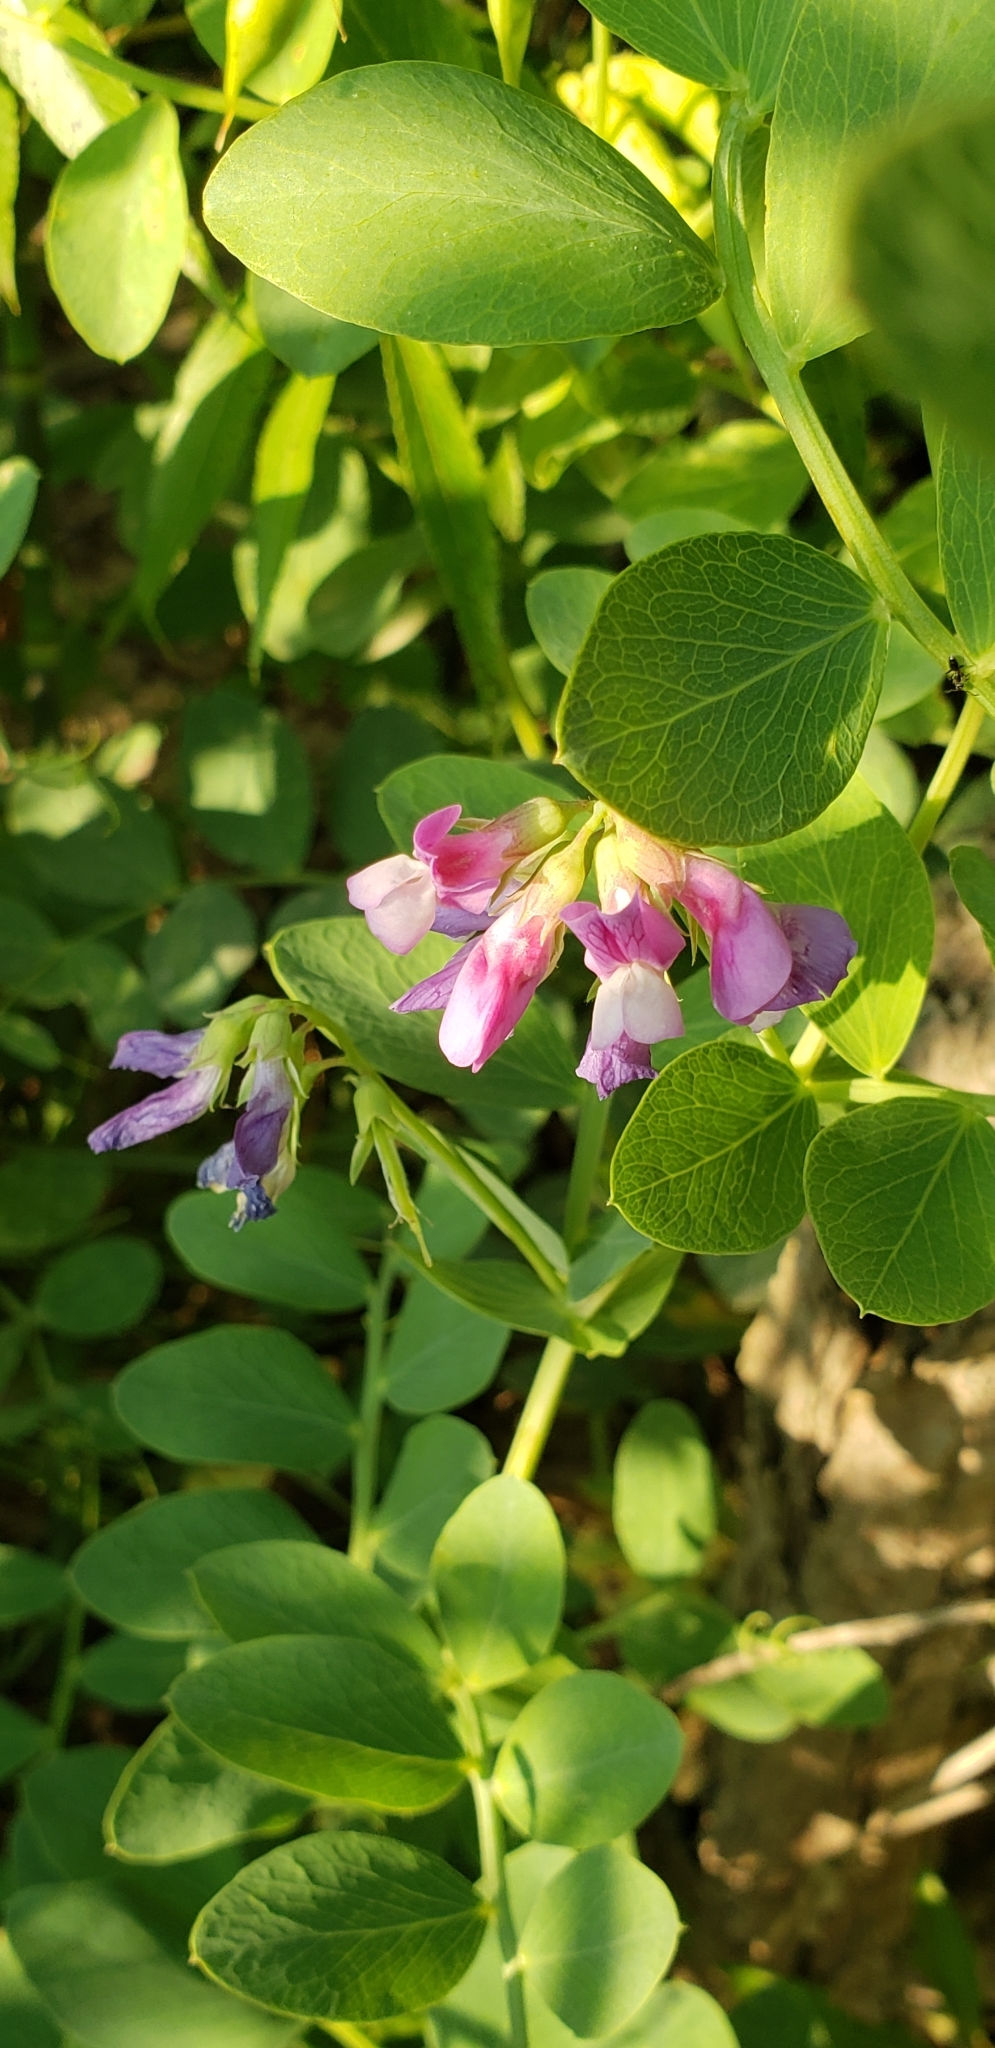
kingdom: Plantae
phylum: Tracheophyta
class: Magnoliopsida
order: Fabales
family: Fabaceae
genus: Lathyrus
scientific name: Lathyrus japonicus
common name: Sea pea
